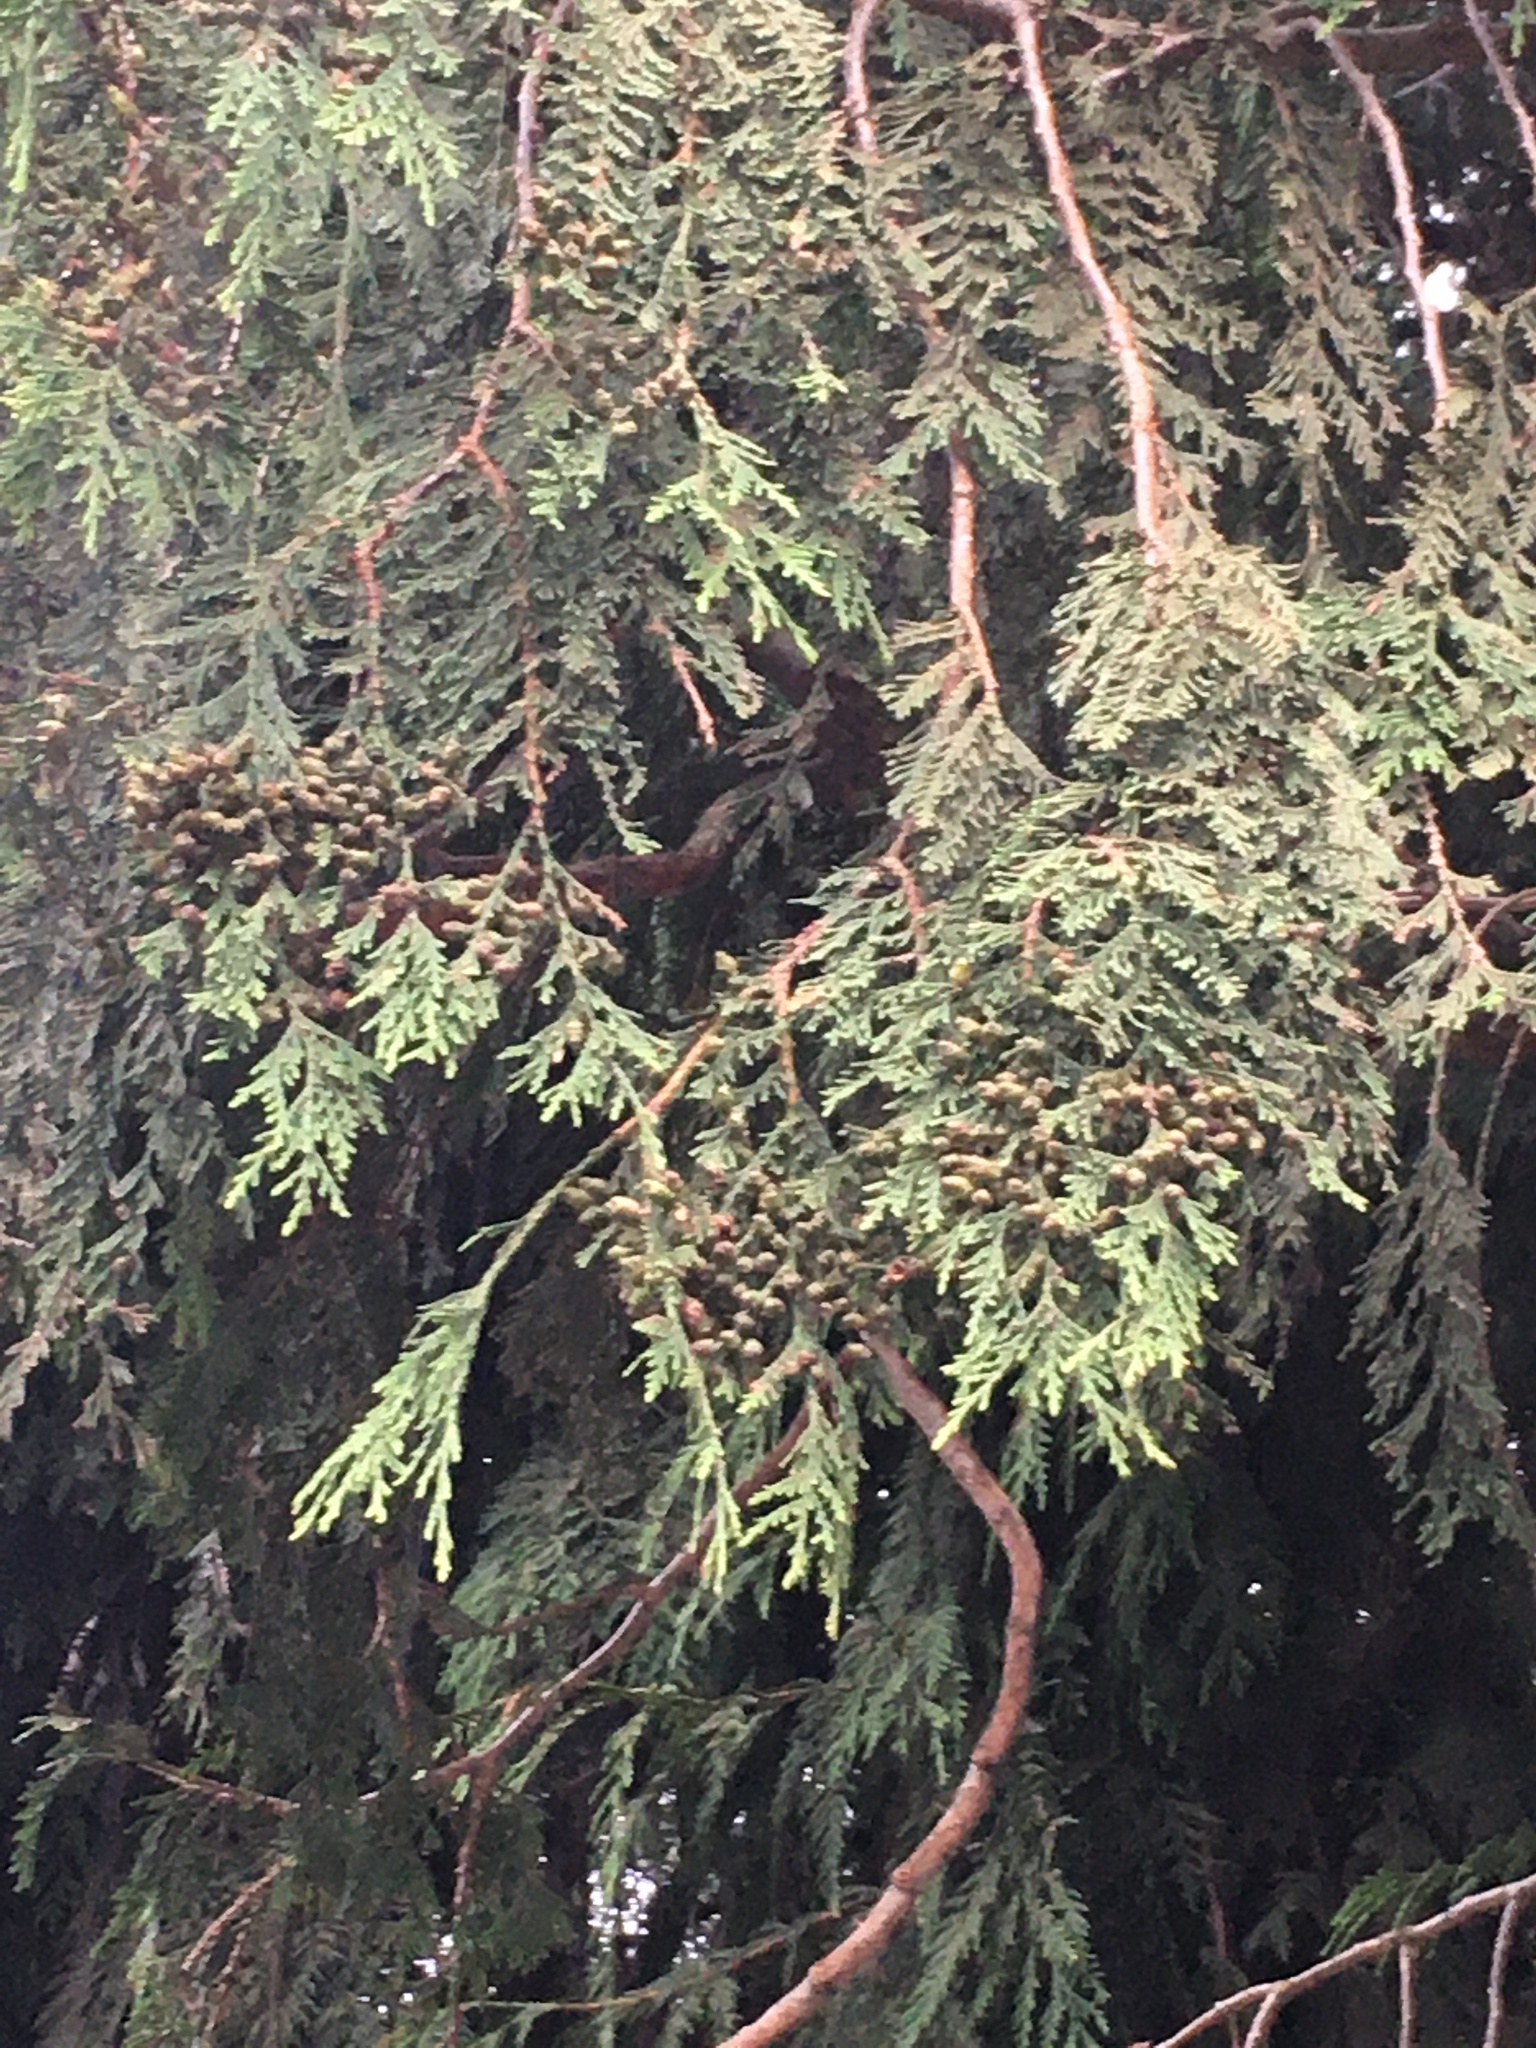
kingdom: Plantae
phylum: Tracheophyta
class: Pinopsida
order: Pinales
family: Cupressaceae
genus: Thuja
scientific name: Thuja plicata
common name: Western red-cedar
